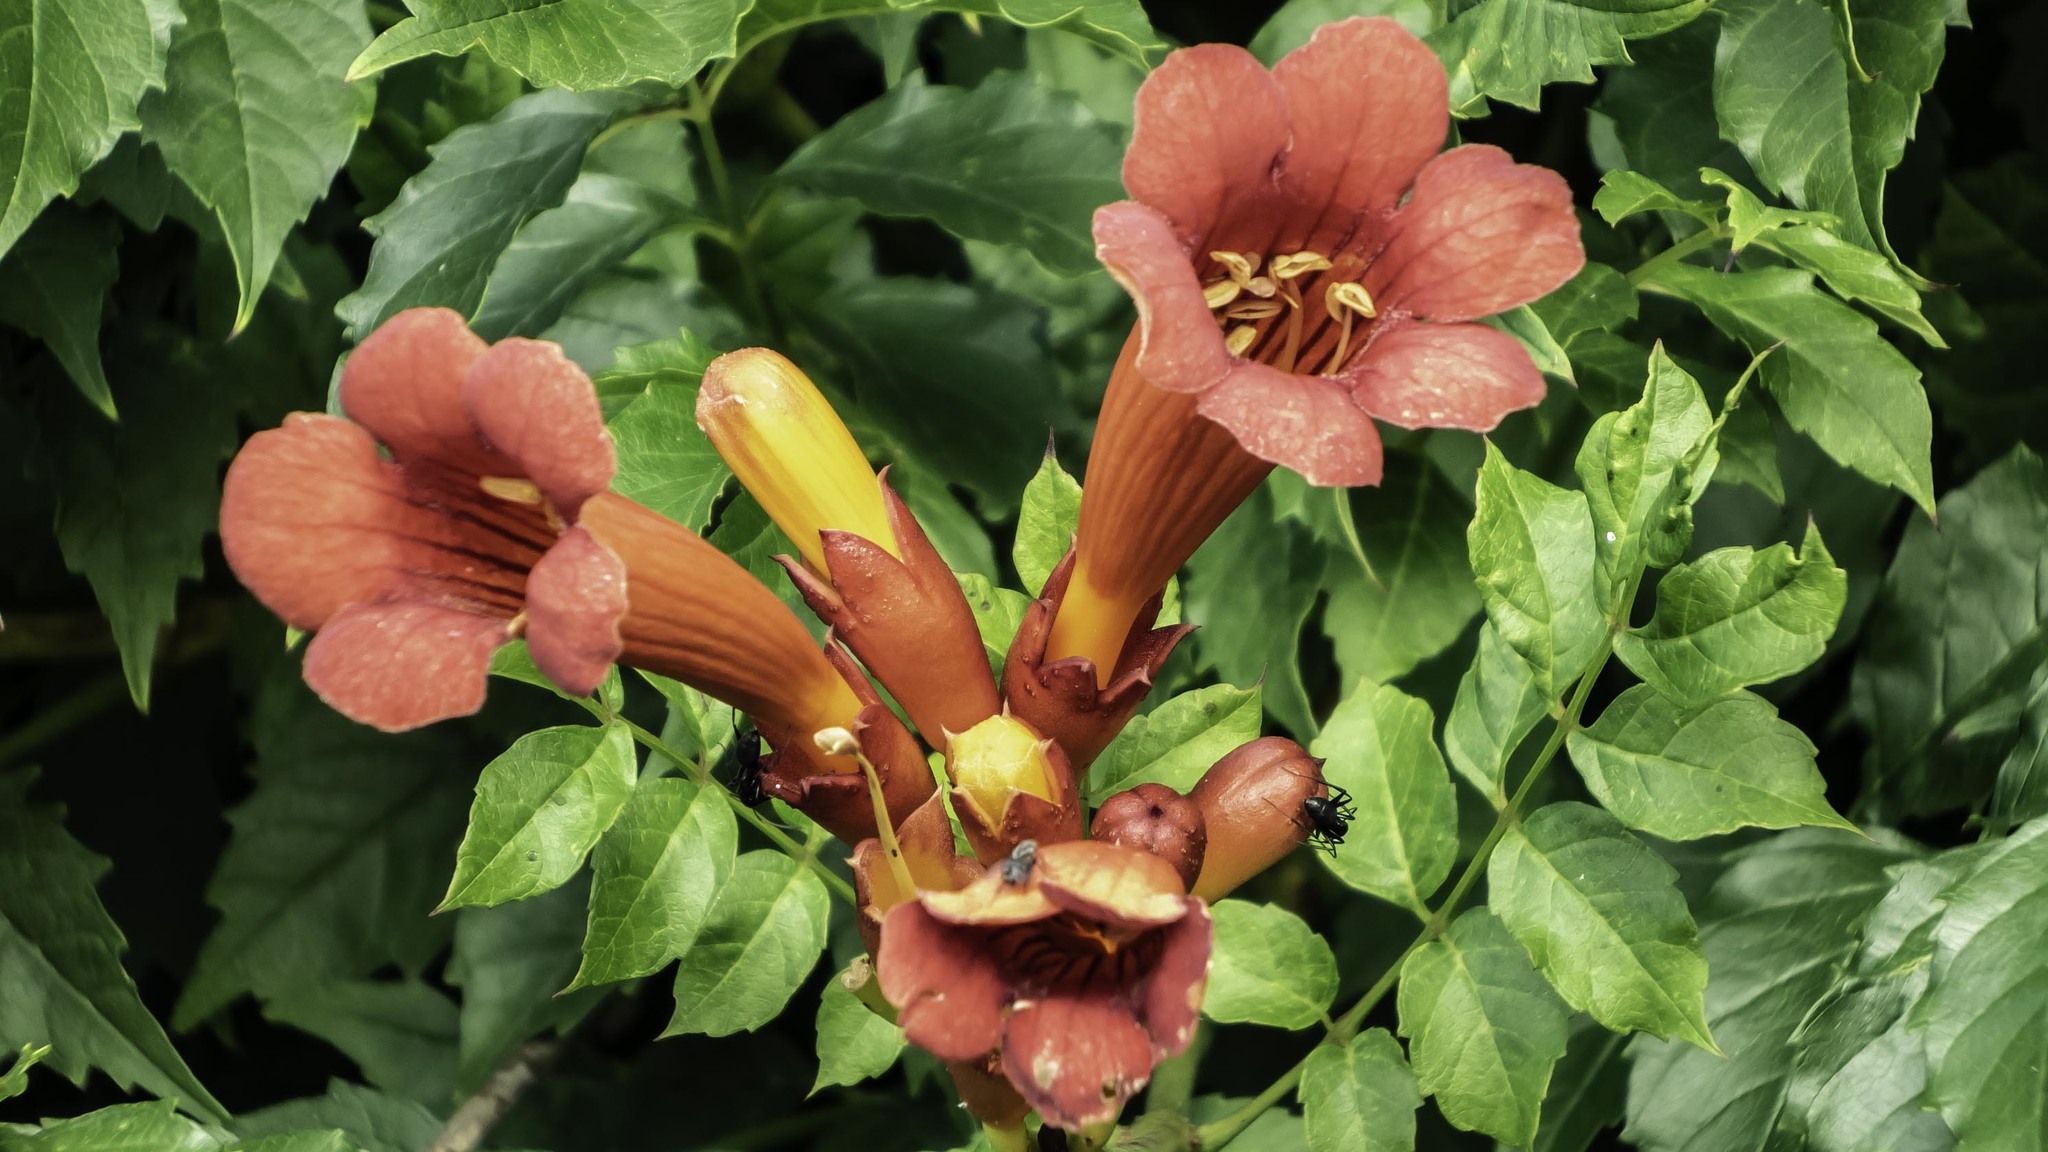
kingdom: Plantae
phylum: Tracheophyta
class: Magnoliopsida
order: Lamiales
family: Bignoniaceae
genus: Campsis
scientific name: Campsis radicans
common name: Trumpet-creeper
